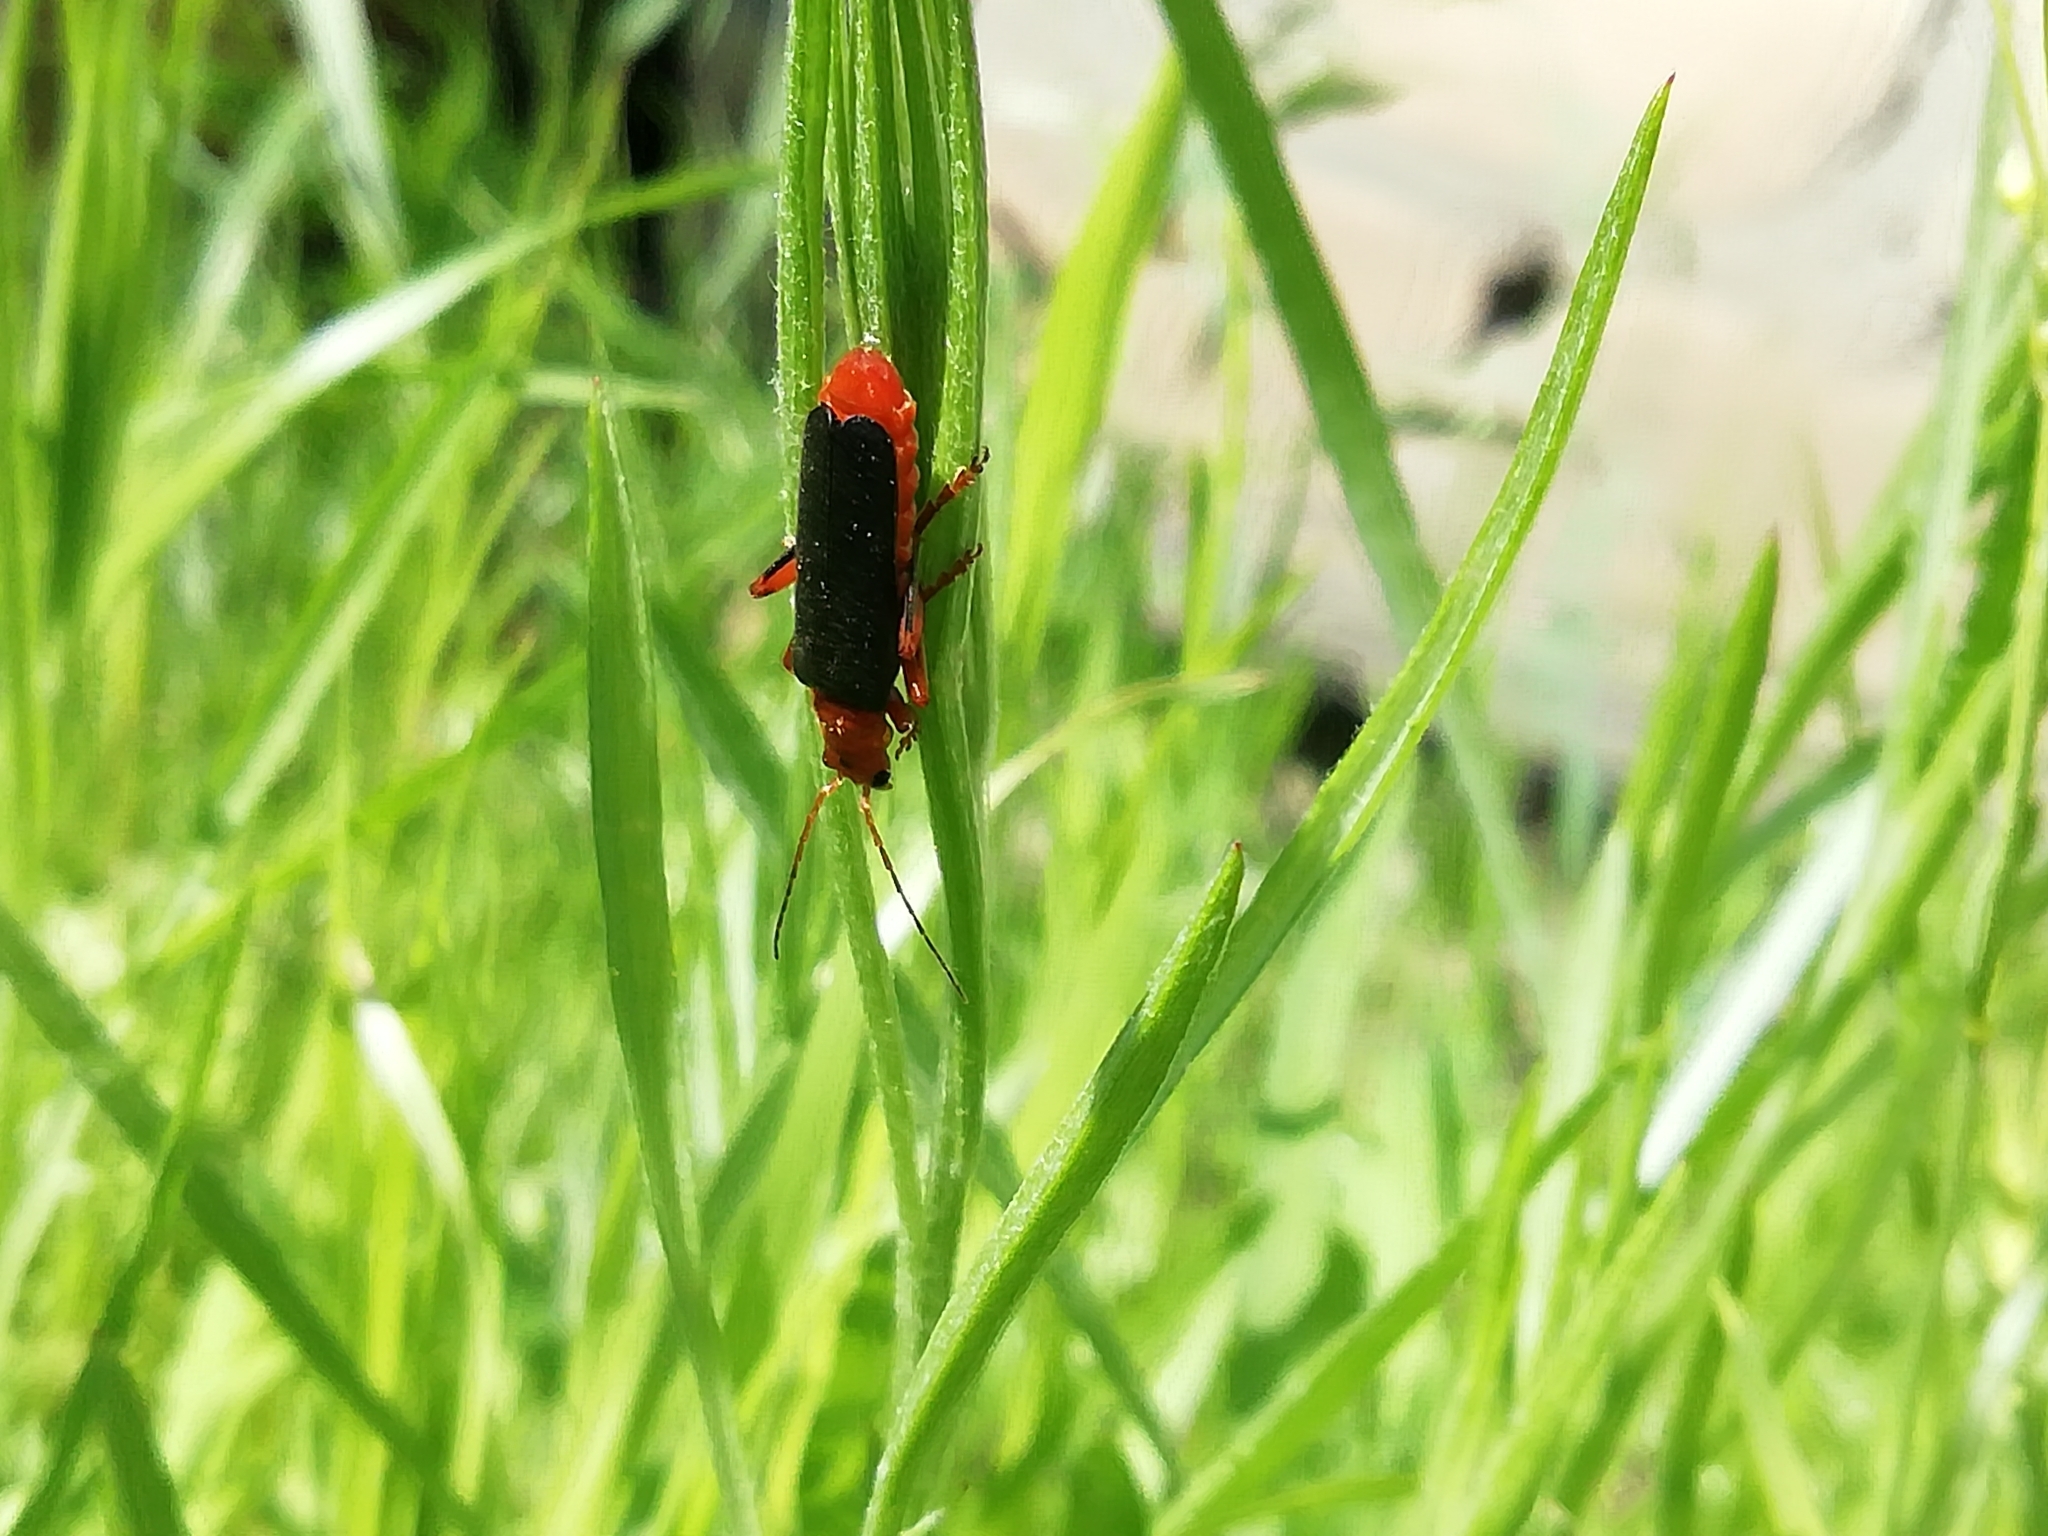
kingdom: Animalia
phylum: Arthropoda
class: Insecta
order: Coleoptera
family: Cantharidae
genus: Cantharis
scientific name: Cantharis livida
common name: Livid soldier beetle
